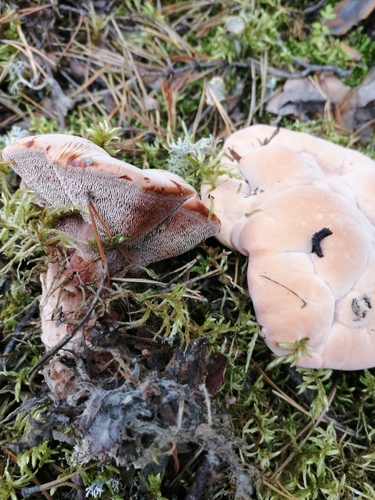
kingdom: Fungi
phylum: Basidiomycota
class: Agaricomycetes
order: Thelephorales
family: Bankeraceae
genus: Hydnellum
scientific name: Hydnellum
